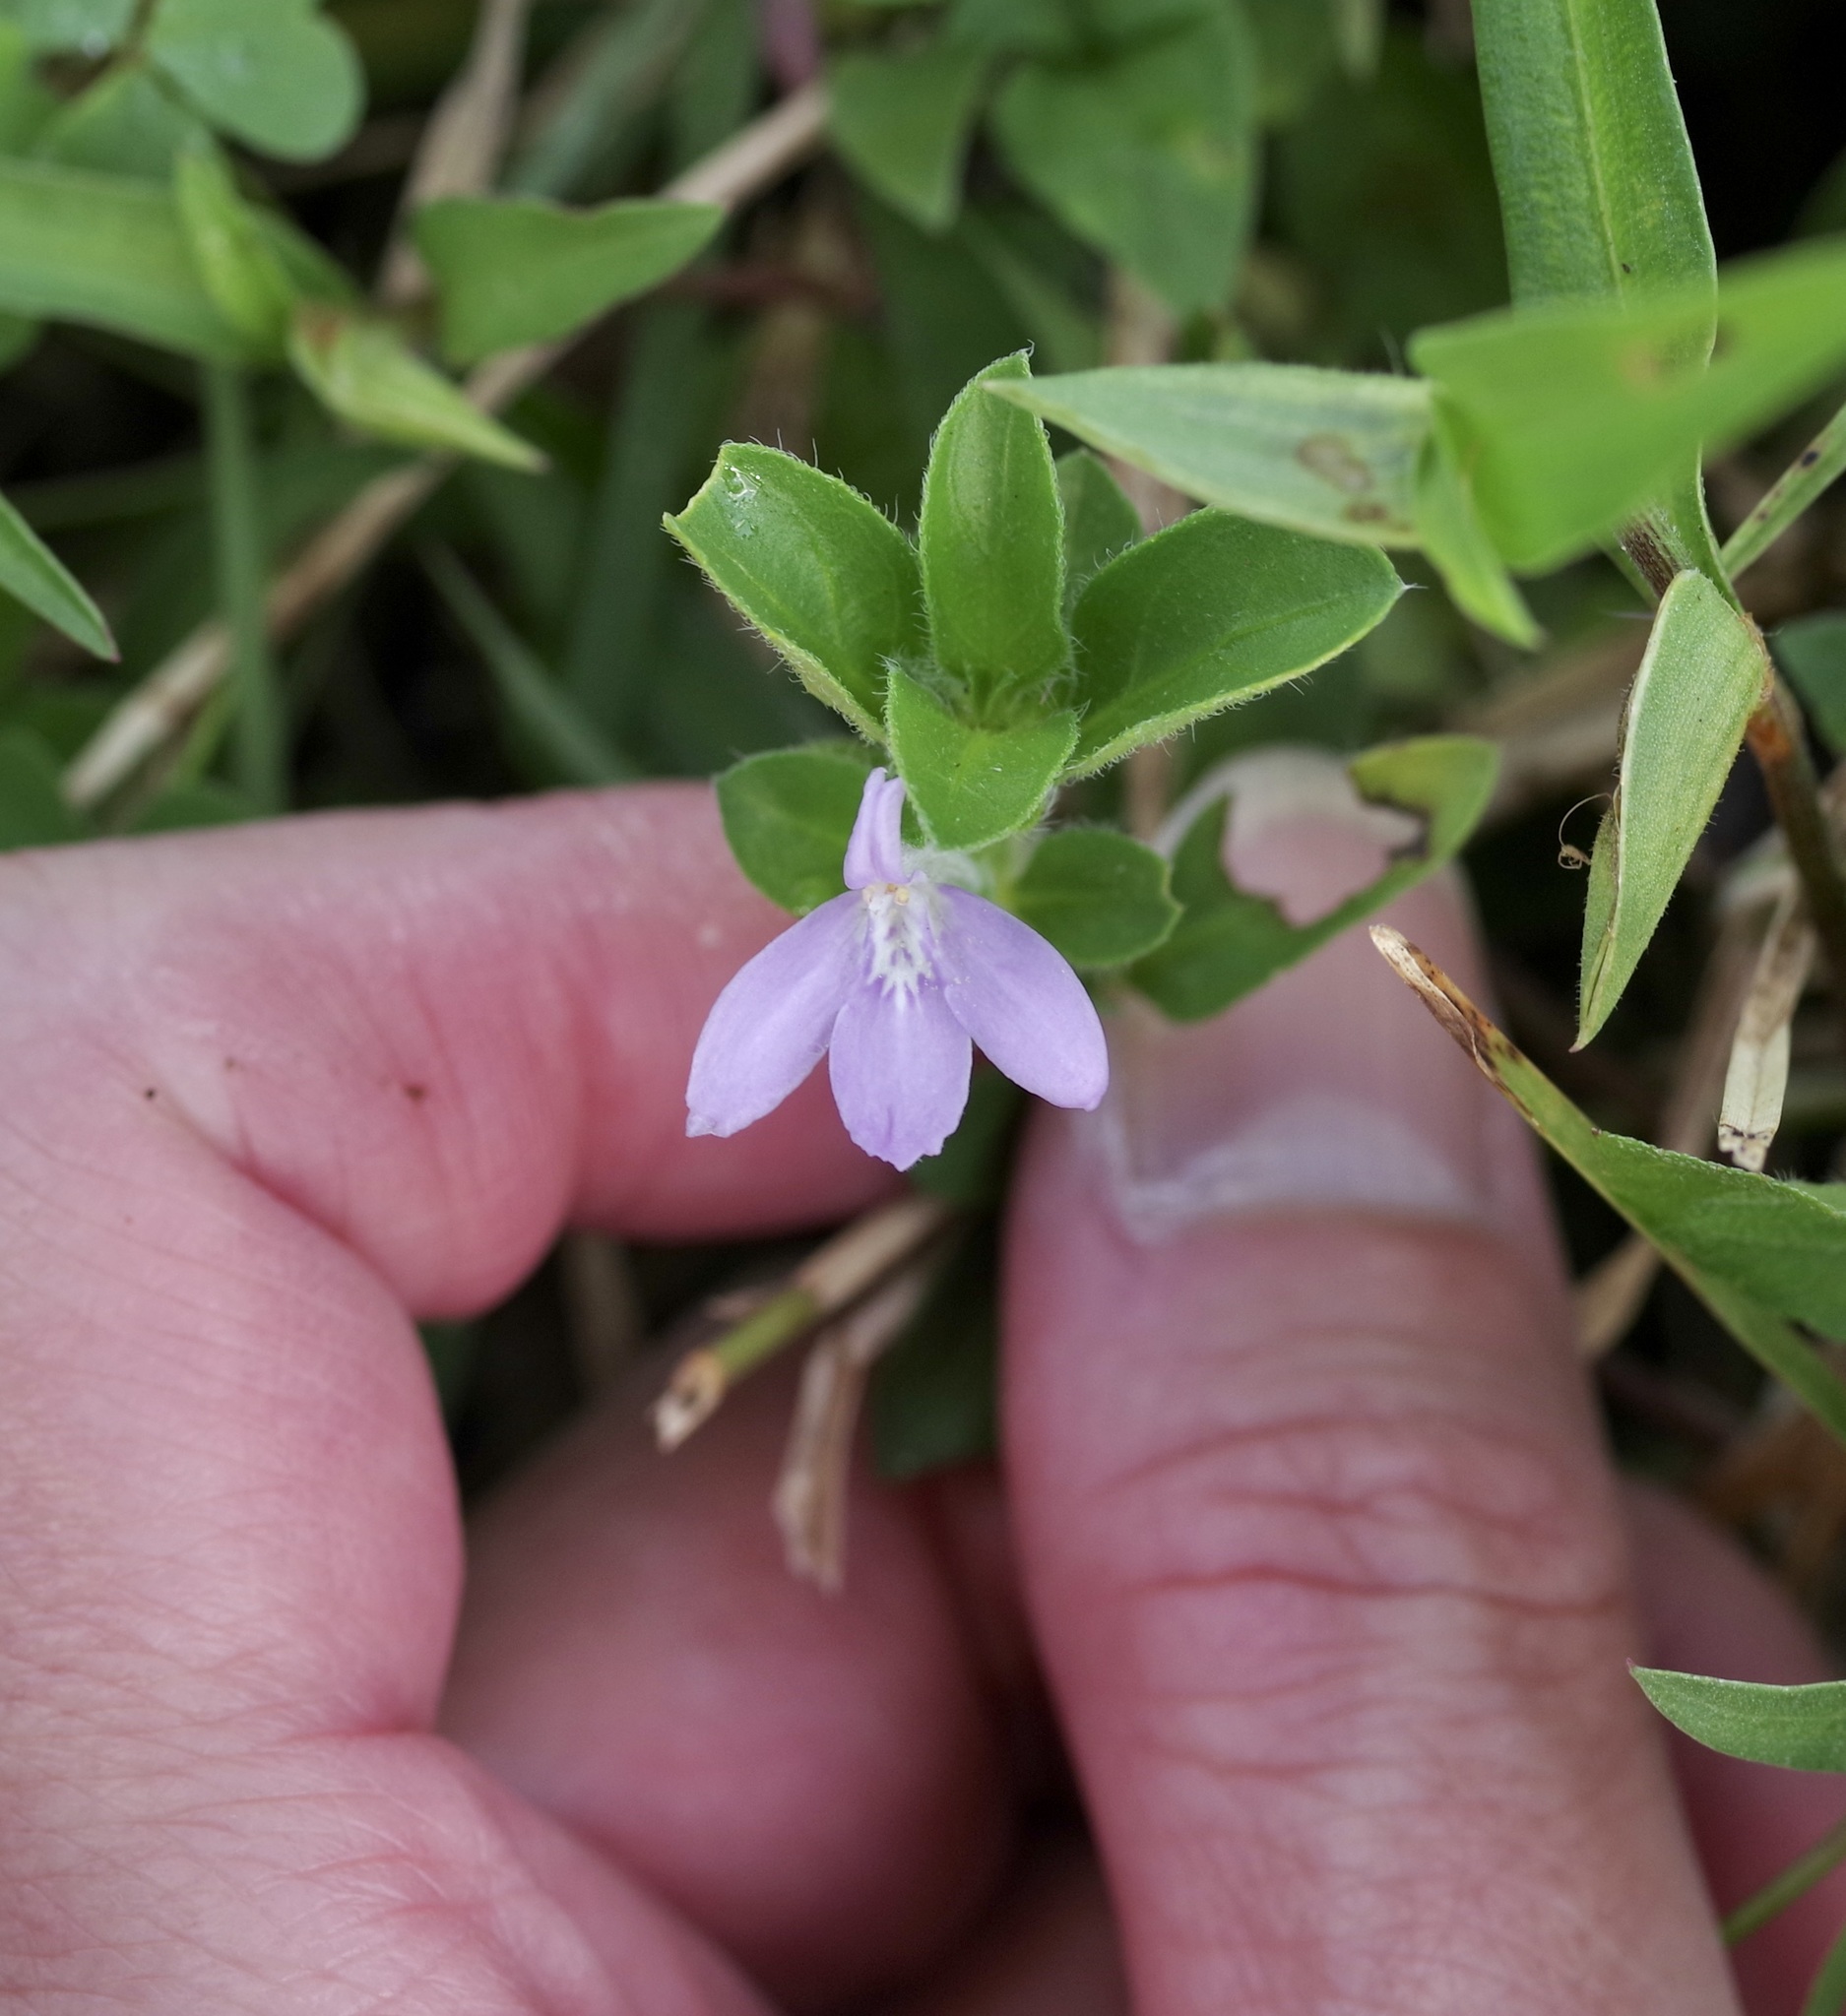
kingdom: Plantae
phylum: Tracheophyta
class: Magnoliopsida
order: Lamiales
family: Acanthaceae
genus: Justicia
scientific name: Justicia pilosella
